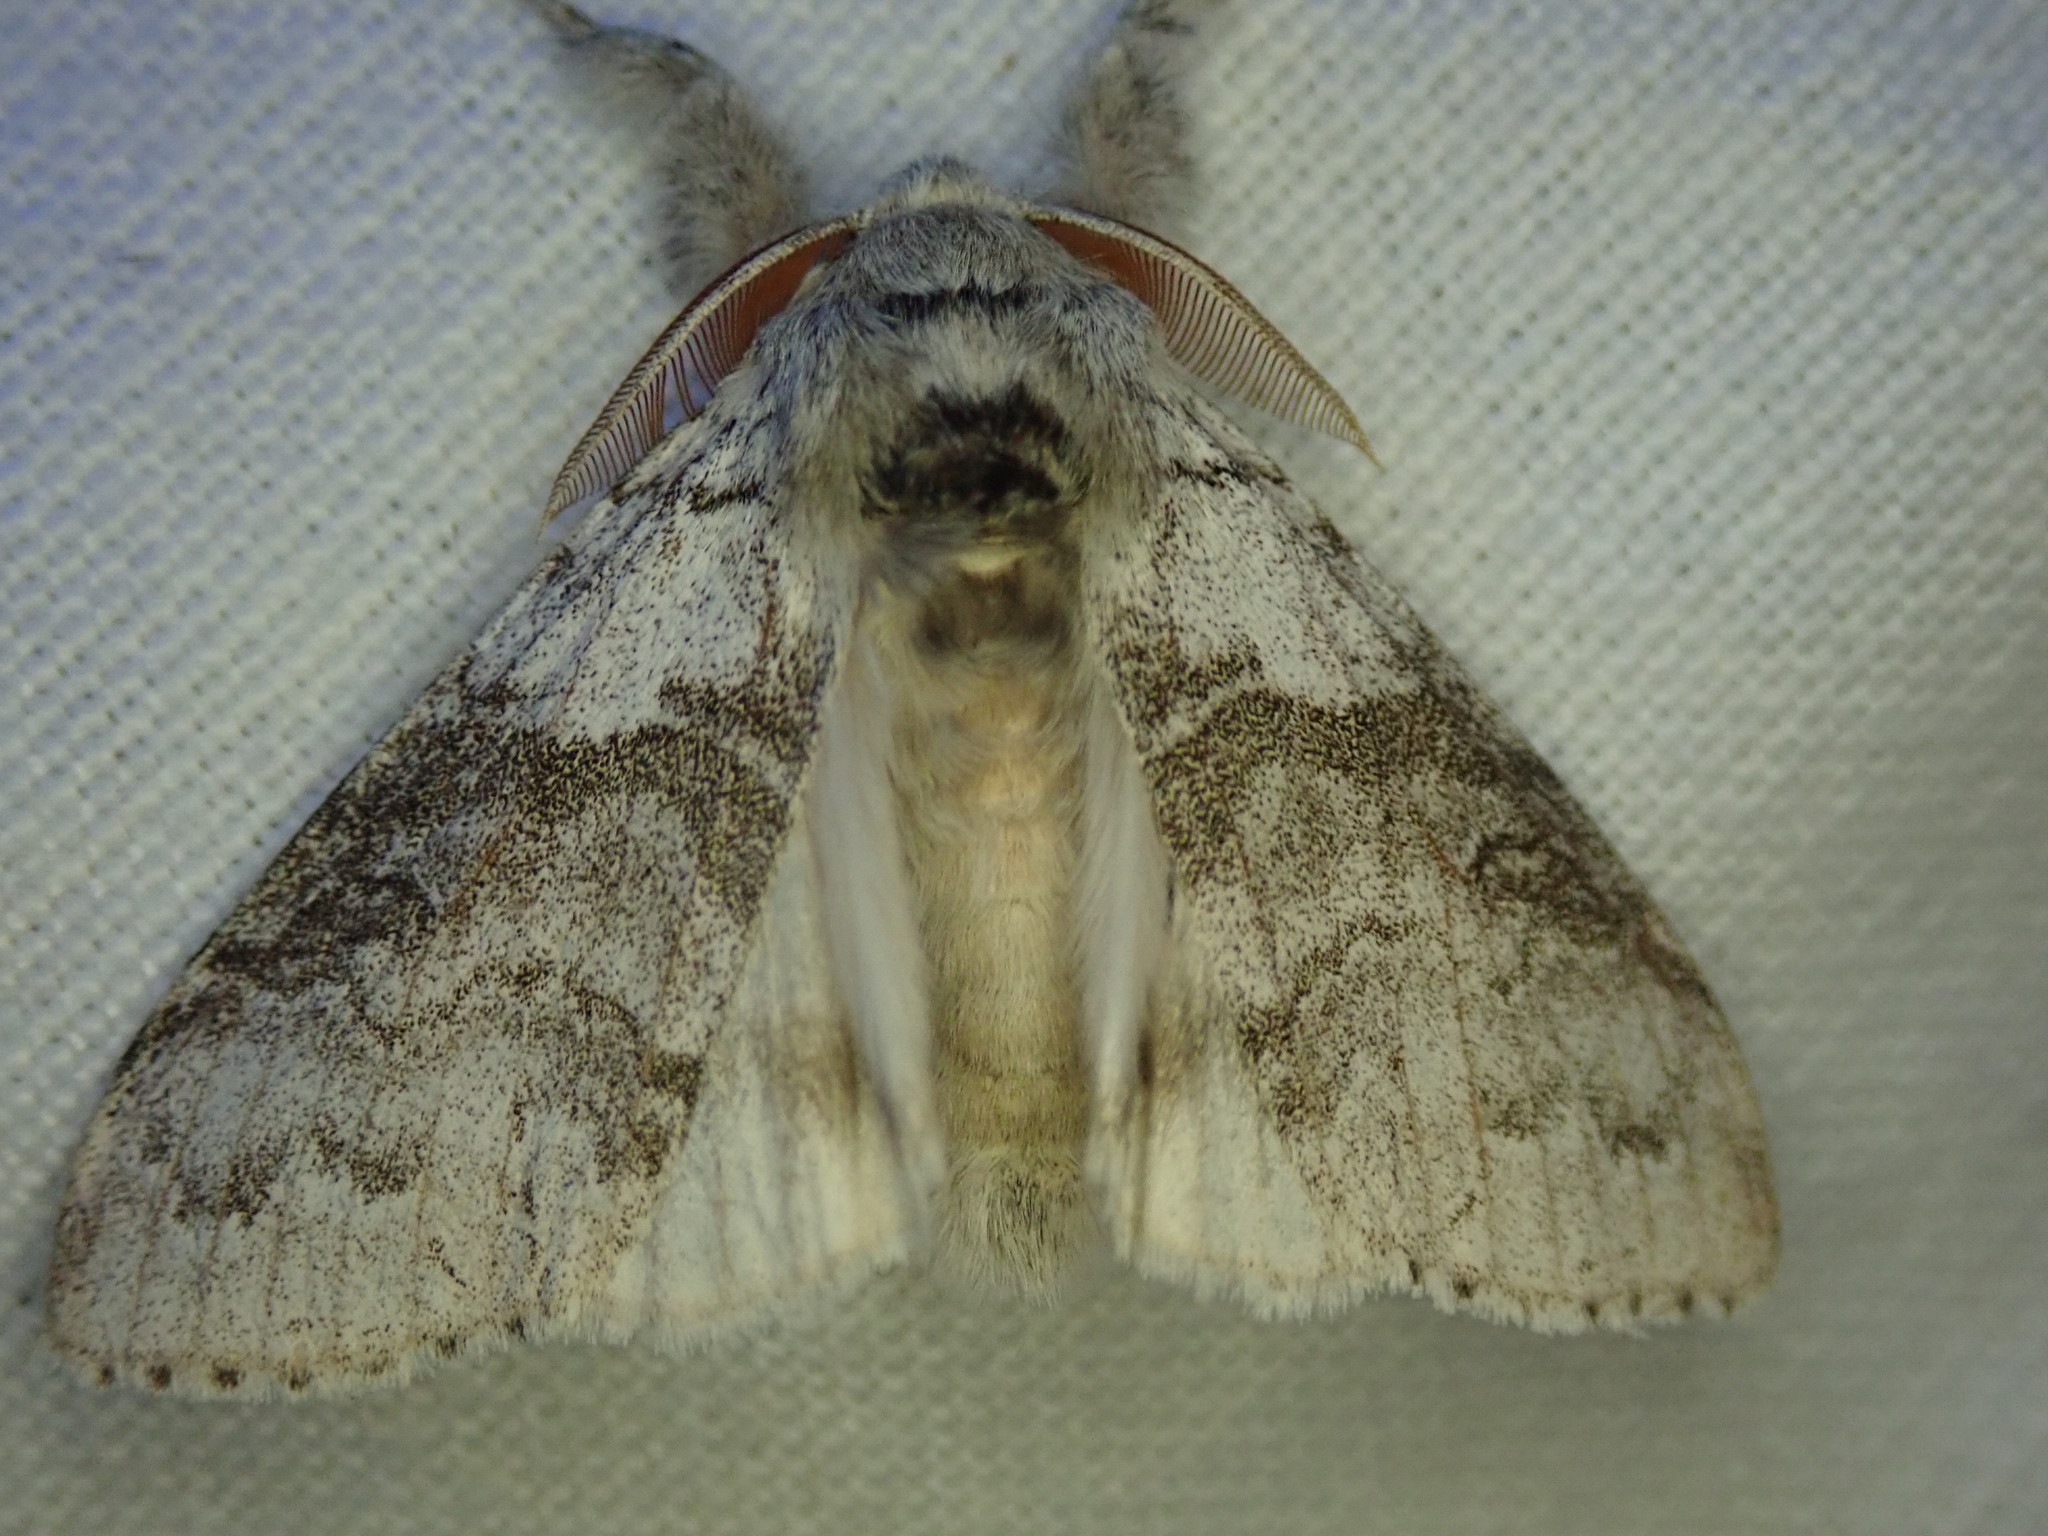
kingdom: Animalia
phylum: Arthropoda
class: Insecta
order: Lepidoptera
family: Erebidae
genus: Calliteara
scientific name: Calliteara pudibunda
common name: Pale tussock
